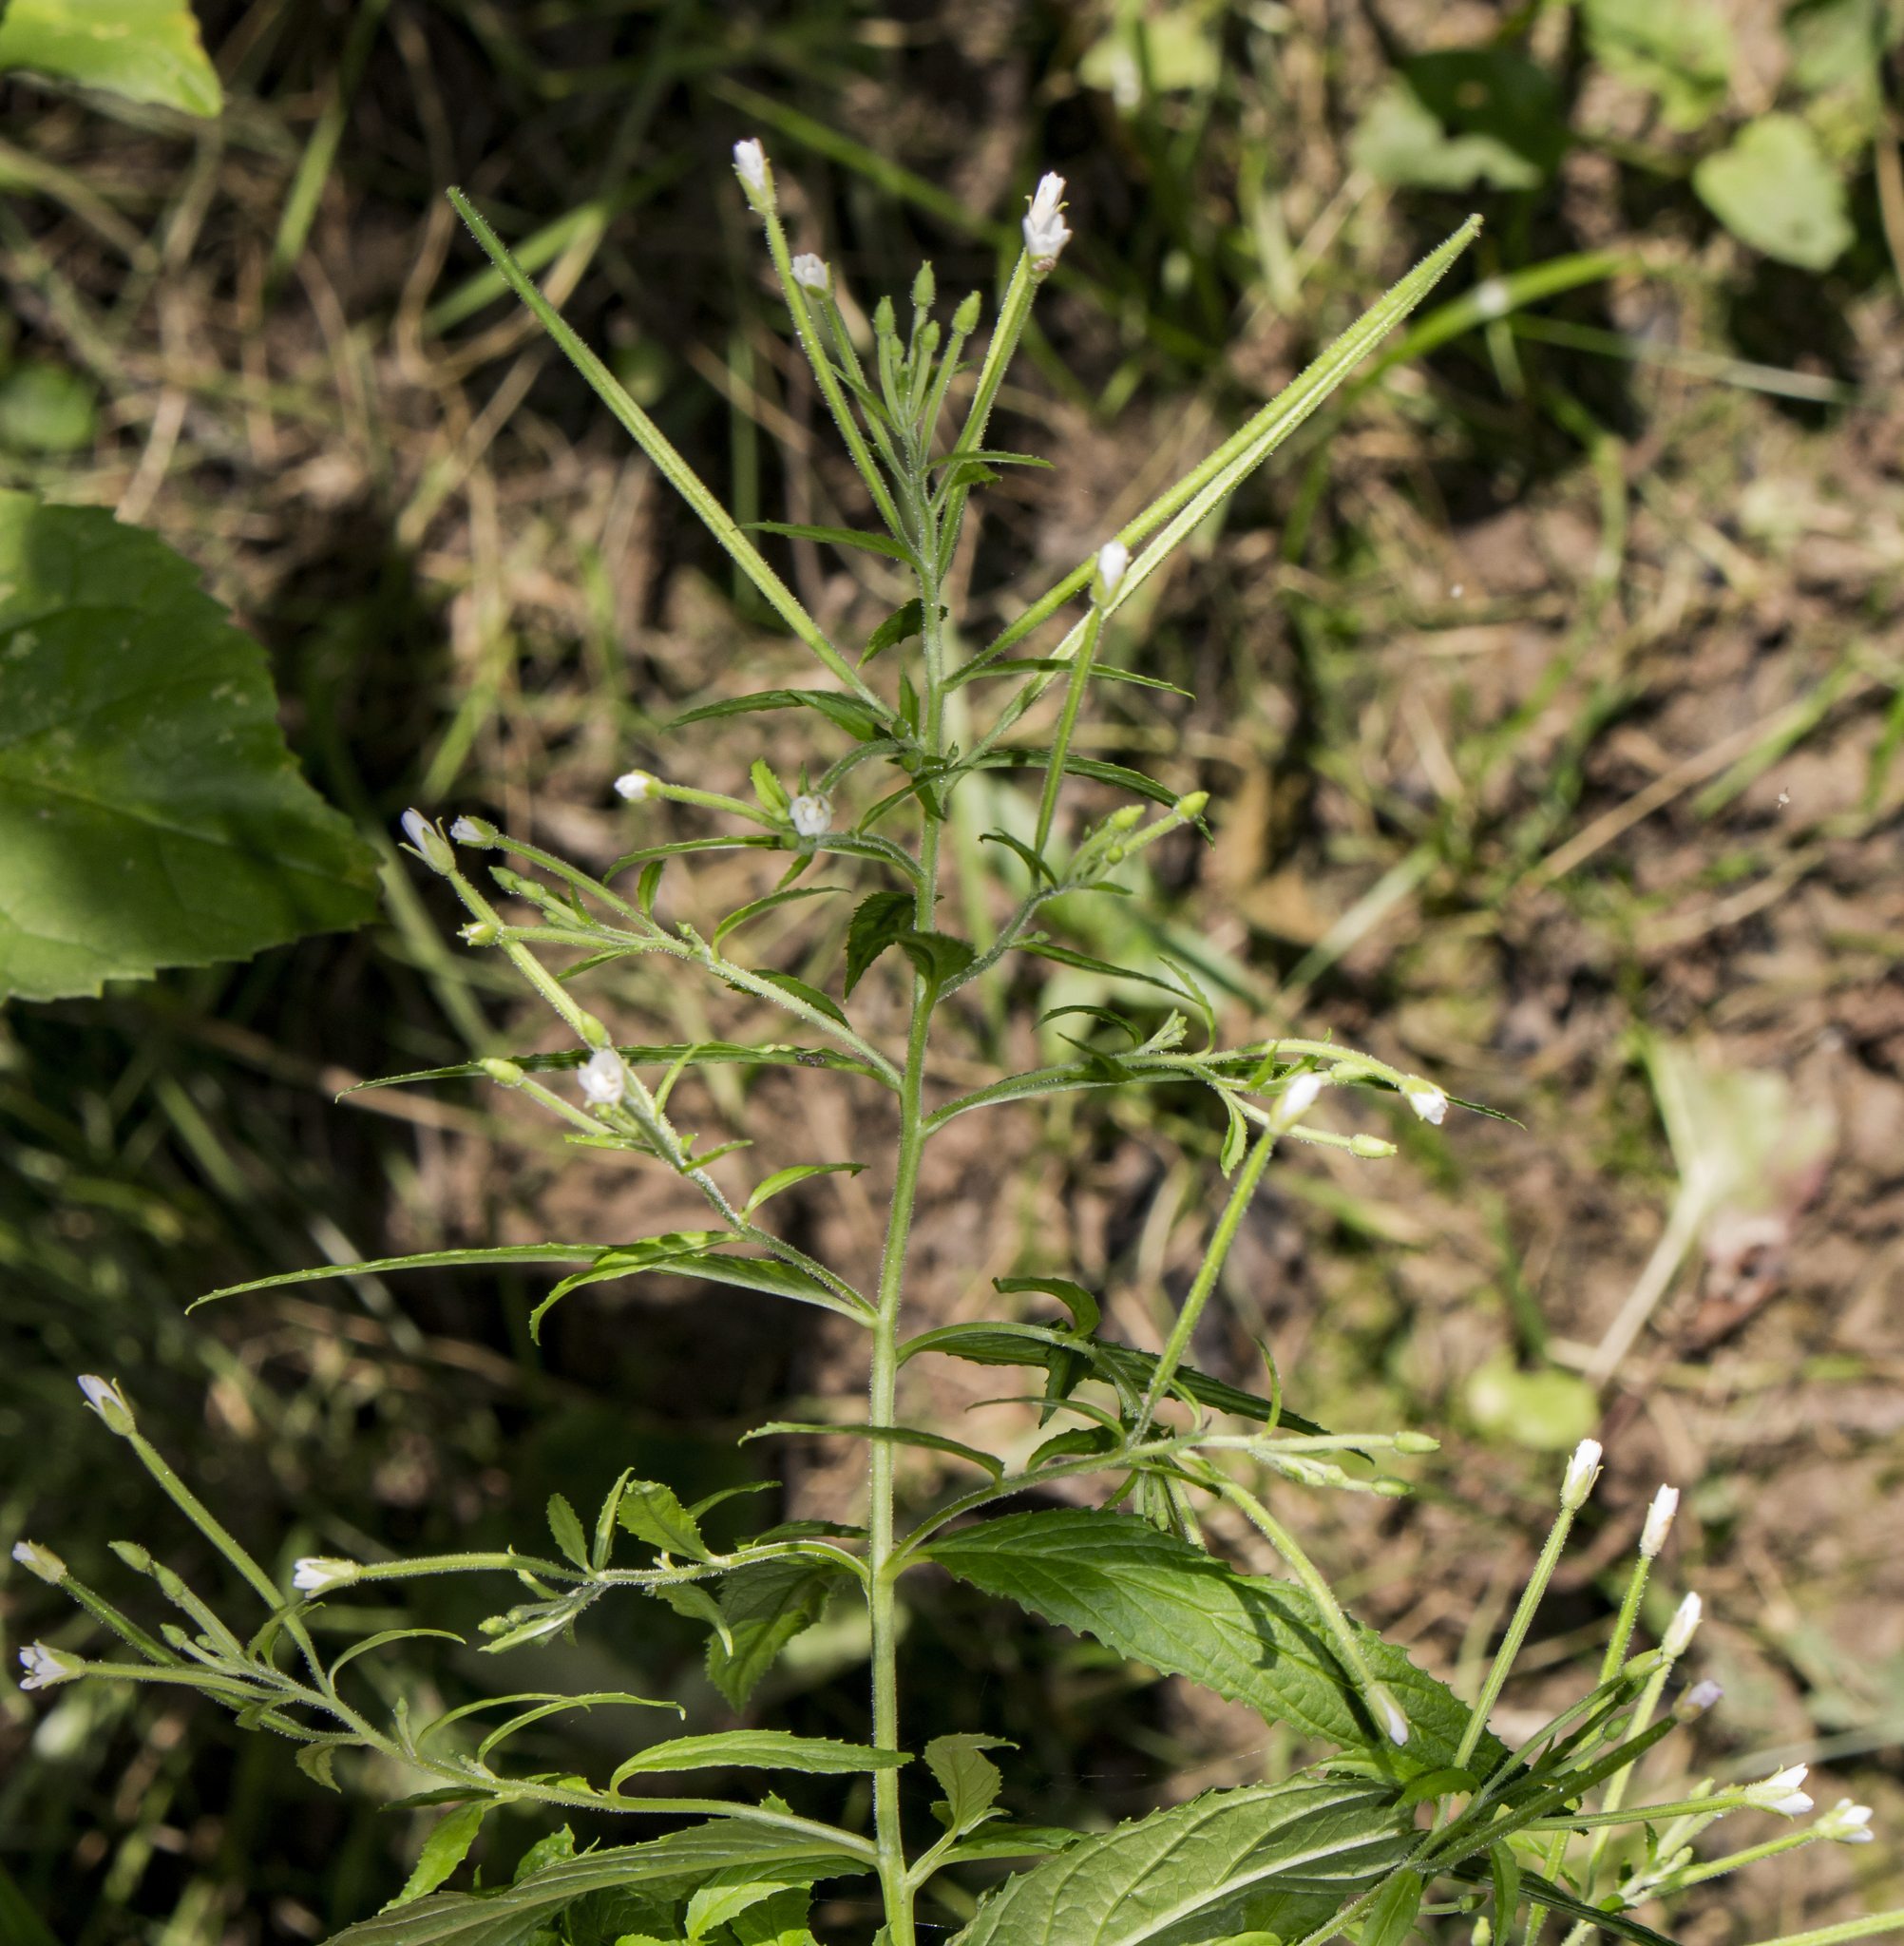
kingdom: Plantae
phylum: Tracheophyta
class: Magnoliopsida
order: Myrtales
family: Onagraceae
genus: Epilobium
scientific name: Epilobium coloratum
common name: Bronze willowherb
